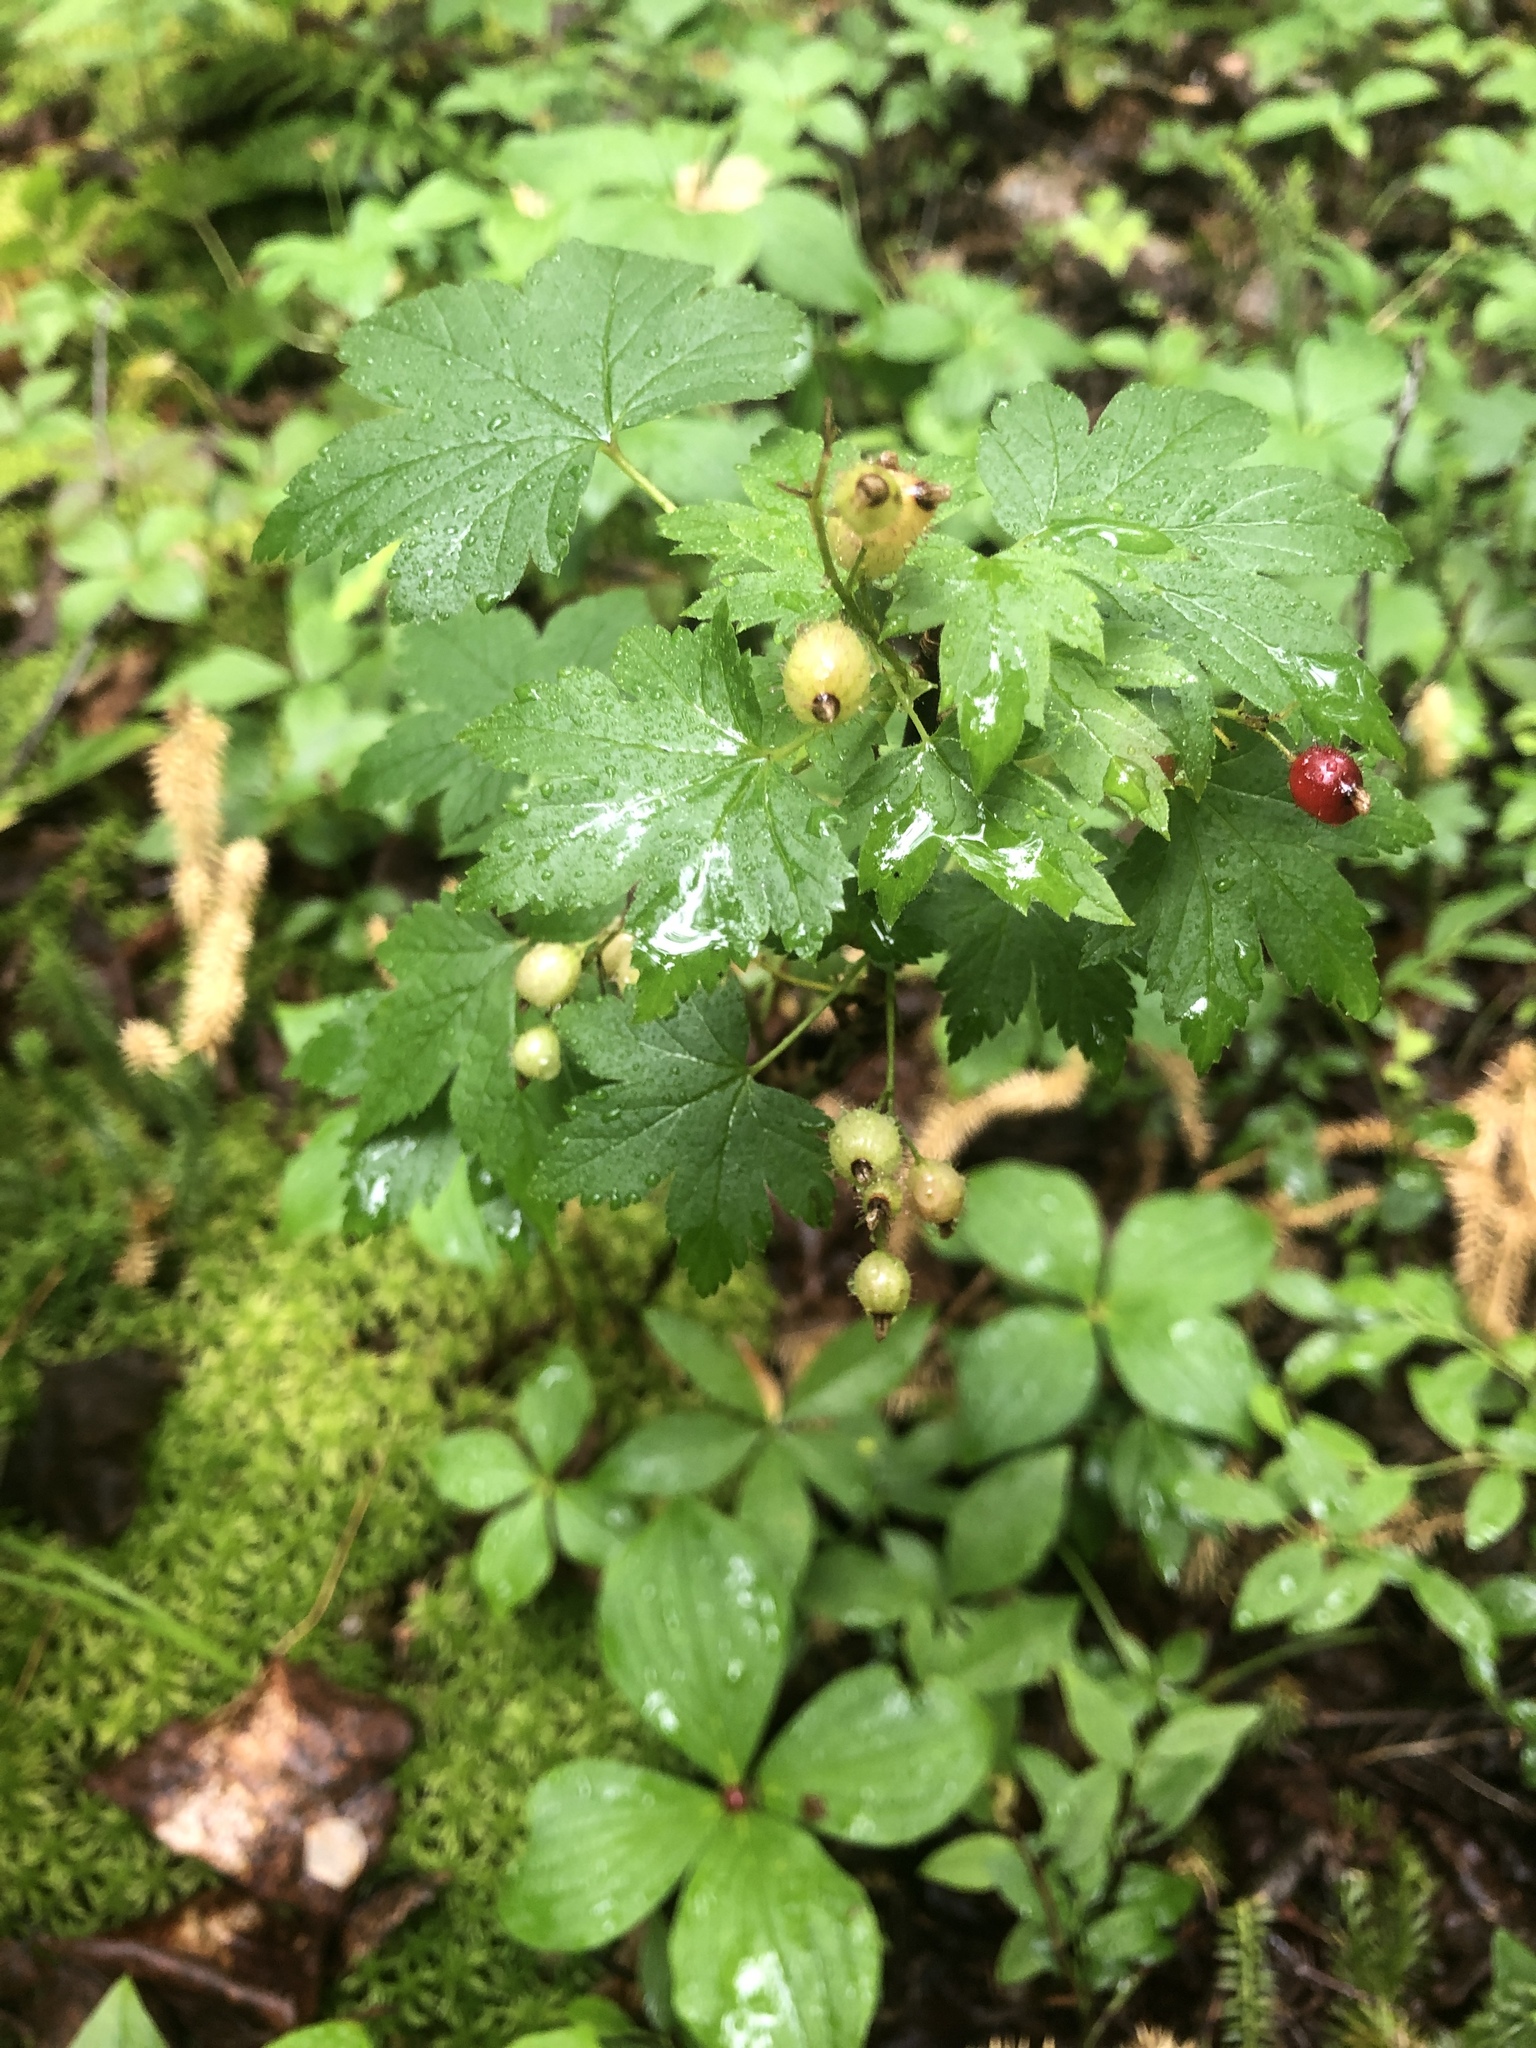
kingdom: Plantae
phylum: Tracheophyta
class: Magnoliopsida
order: Saxifragales
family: Grossulariaceae
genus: Ribes
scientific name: Ribes glandulosum
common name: Skunk currant
